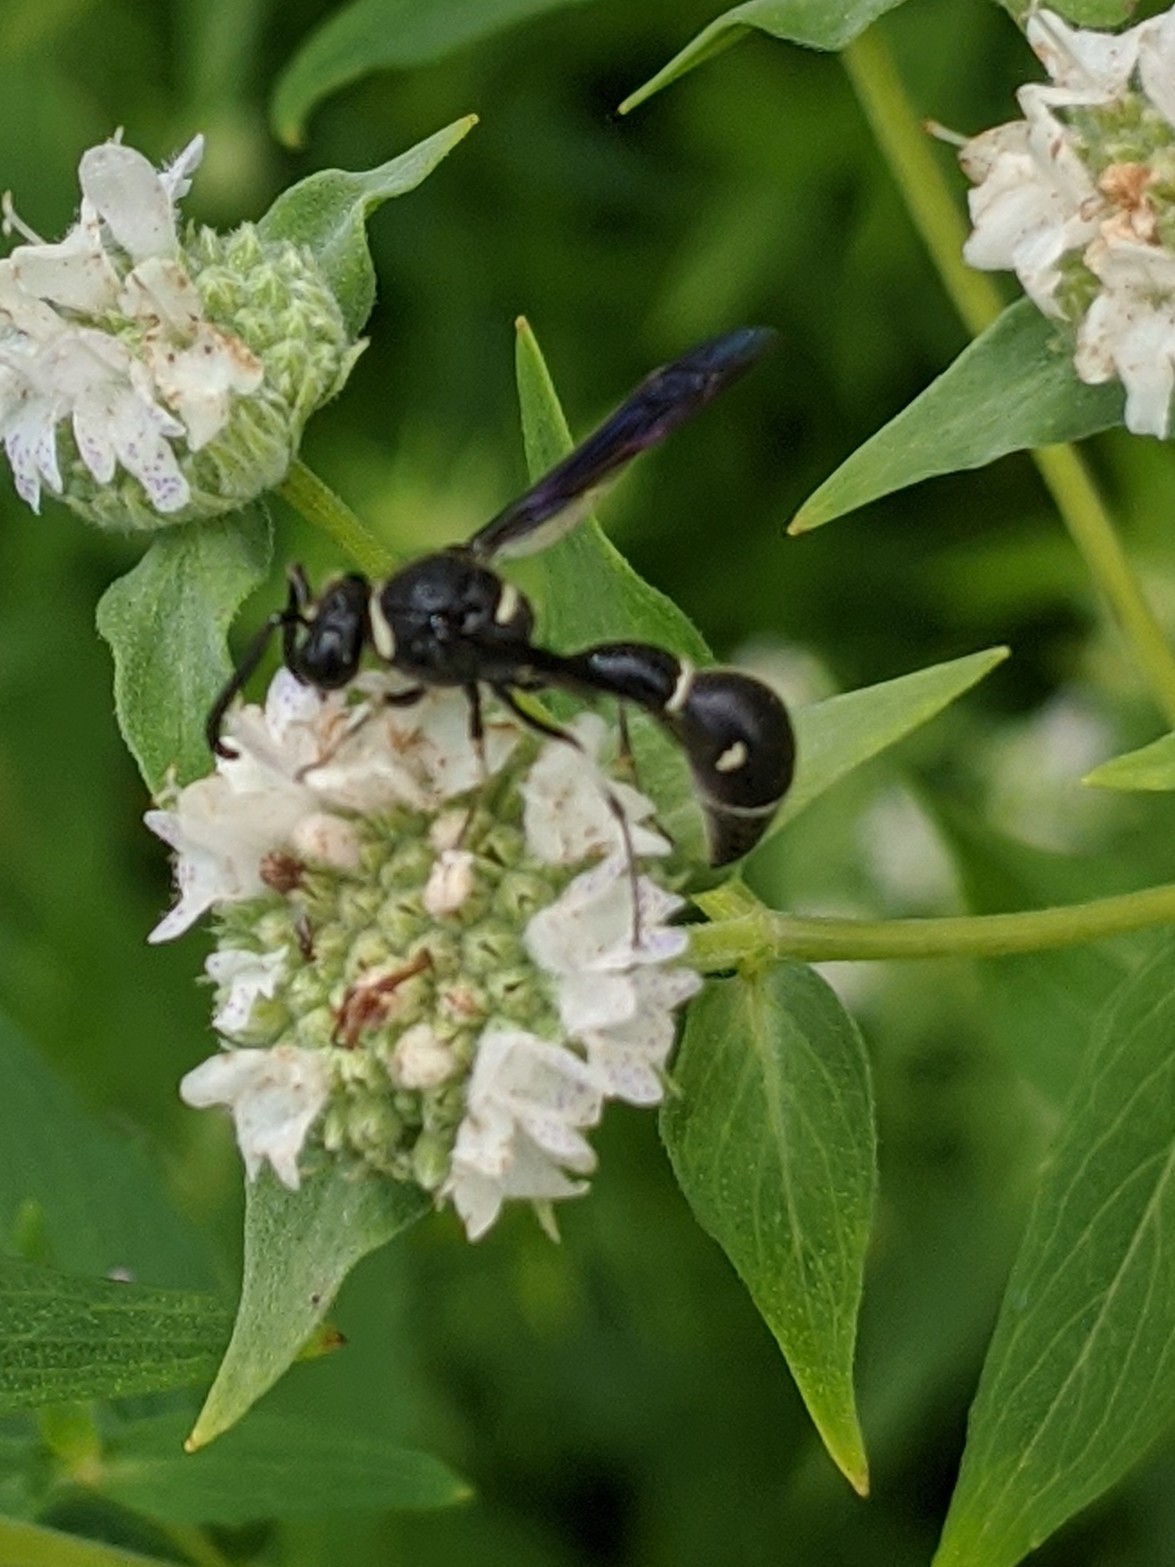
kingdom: Animalia
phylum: Arthropoda
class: Insecta
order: Hymenoptera
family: Vespidae
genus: Eumenes
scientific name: Eumenes fraternus
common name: Fraternal potter wasp
